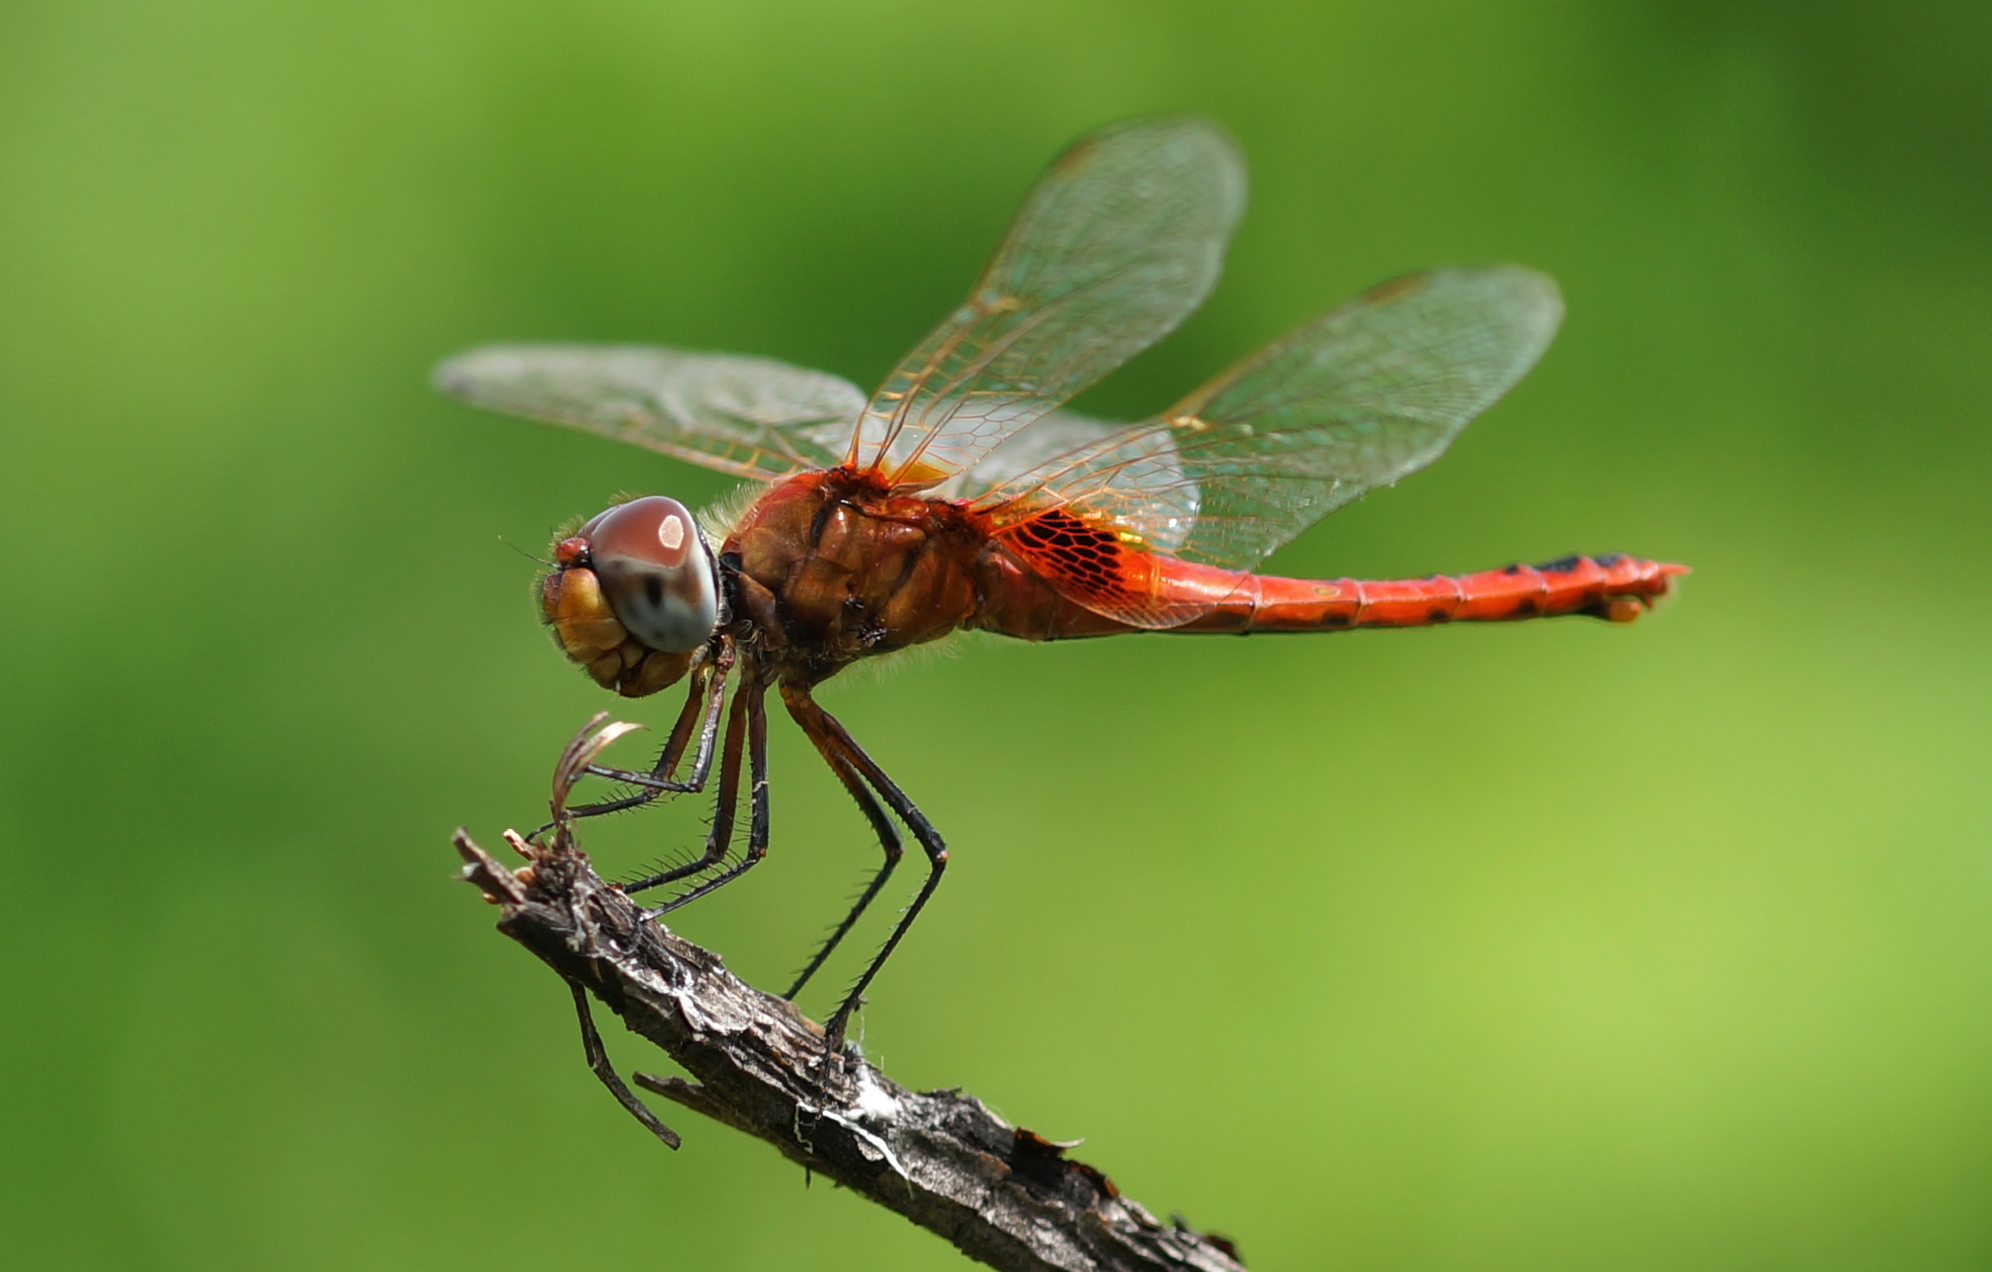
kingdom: Animalia
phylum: Arthropoda
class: Insecta
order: Odonata
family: Libellulidae
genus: Urothemis
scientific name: Urothemis signata
